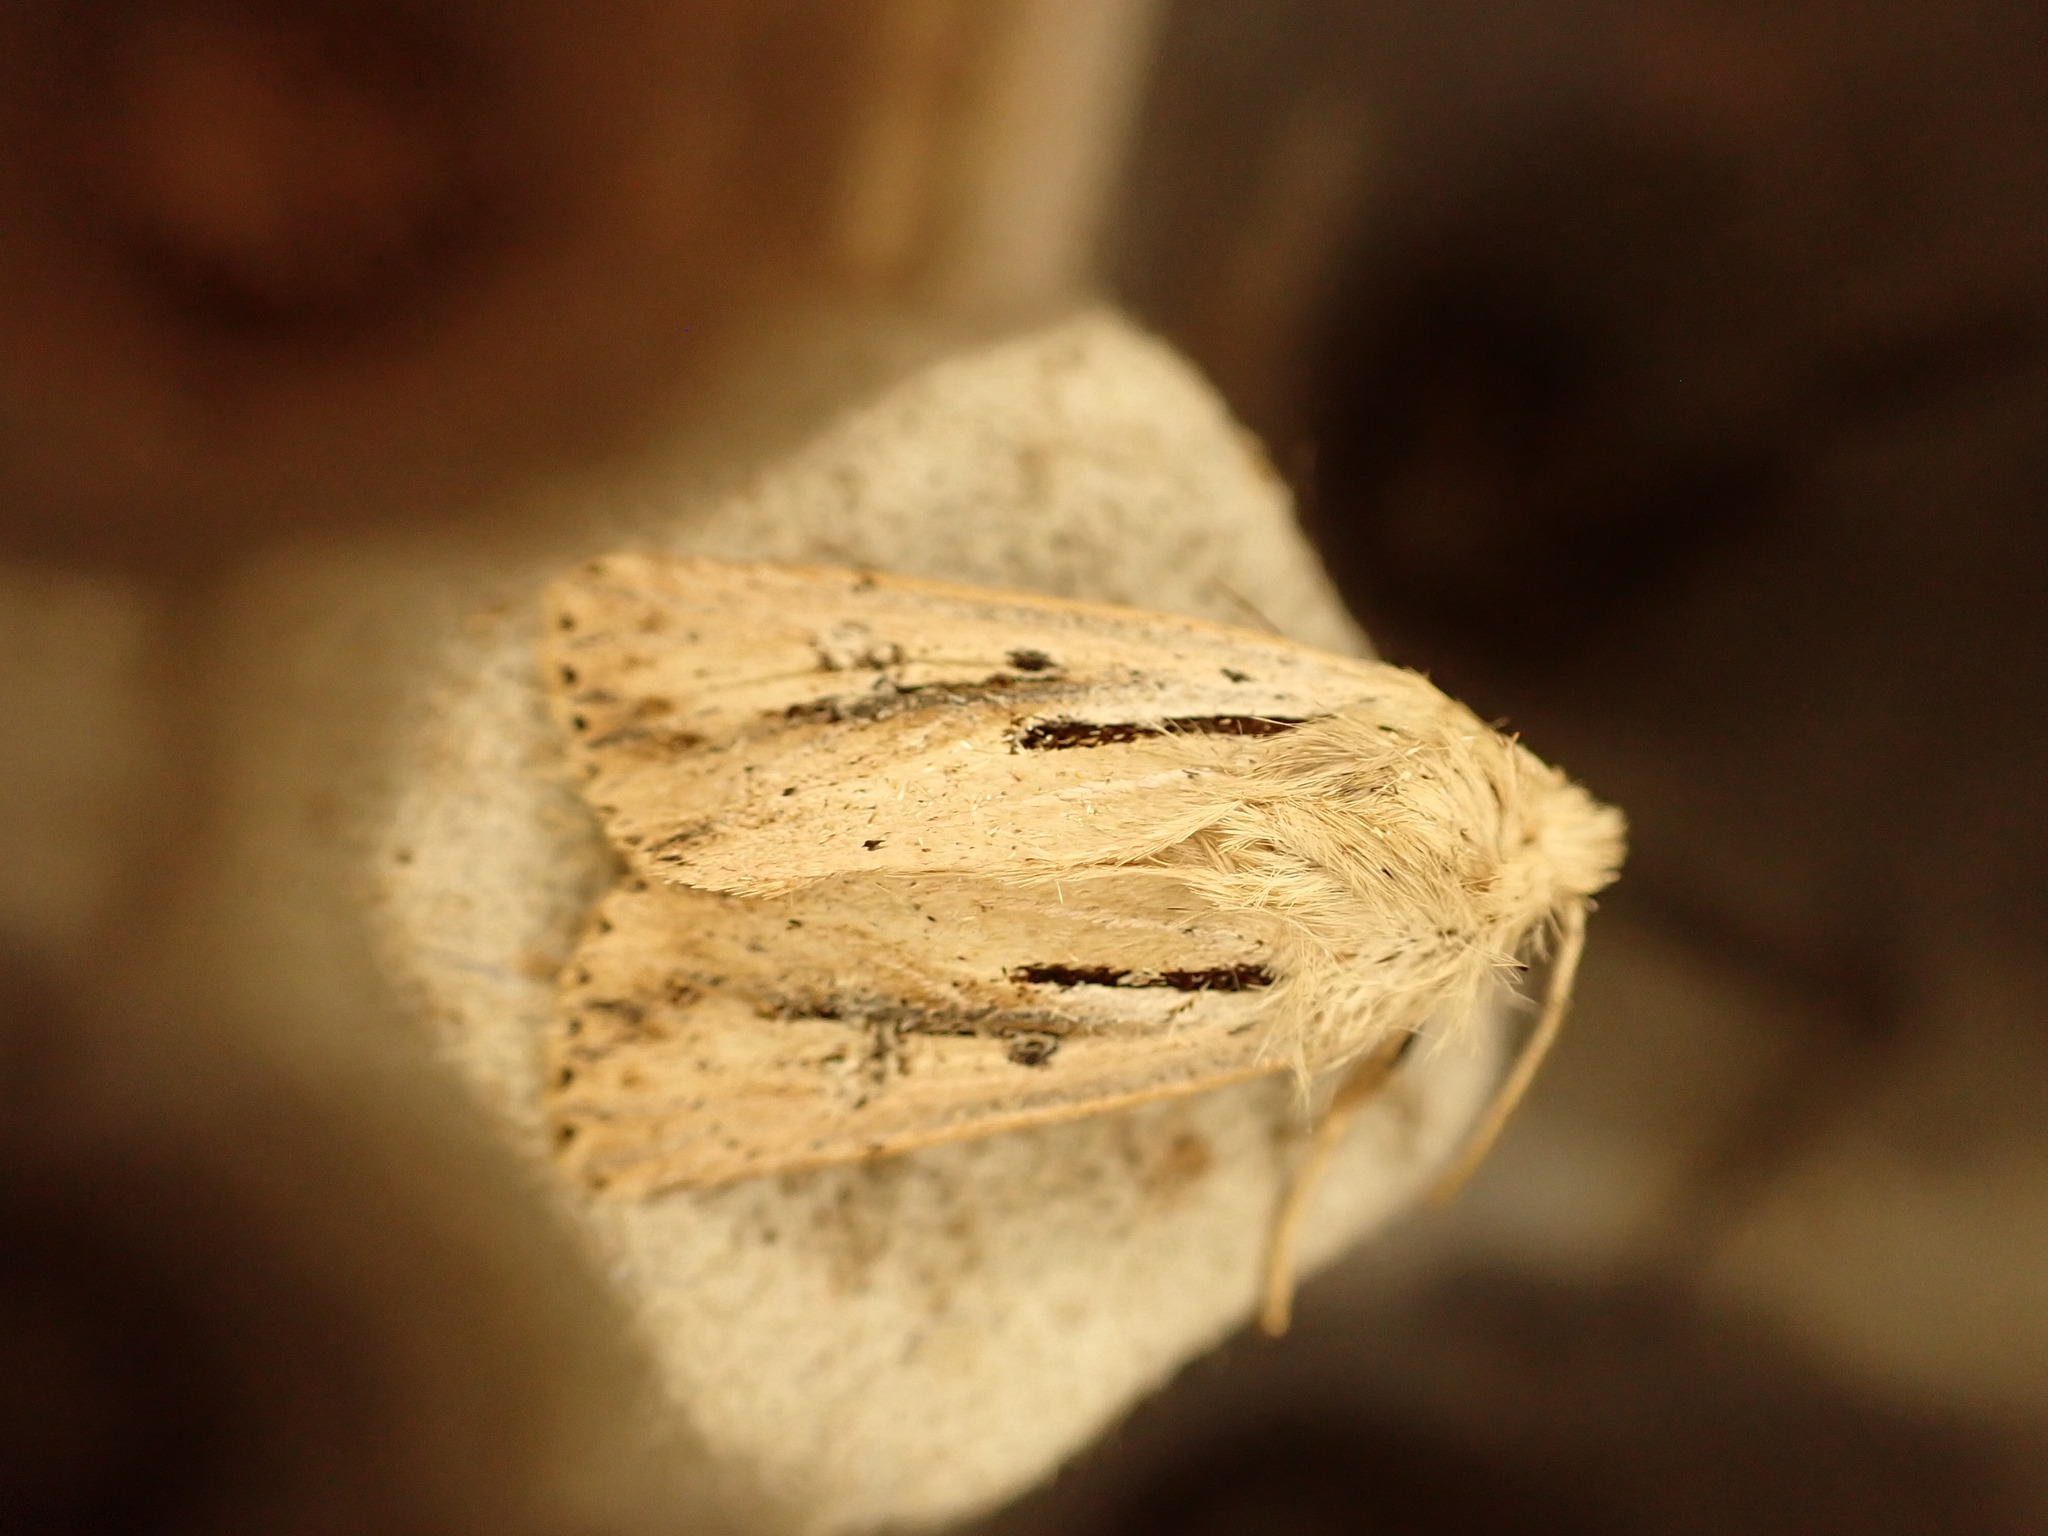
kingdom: Animalia
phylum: Arthropoda
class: Insecta
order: Lepidoptera
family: Noctuidae
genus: Ichneutica
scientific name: Ichneutica propria
